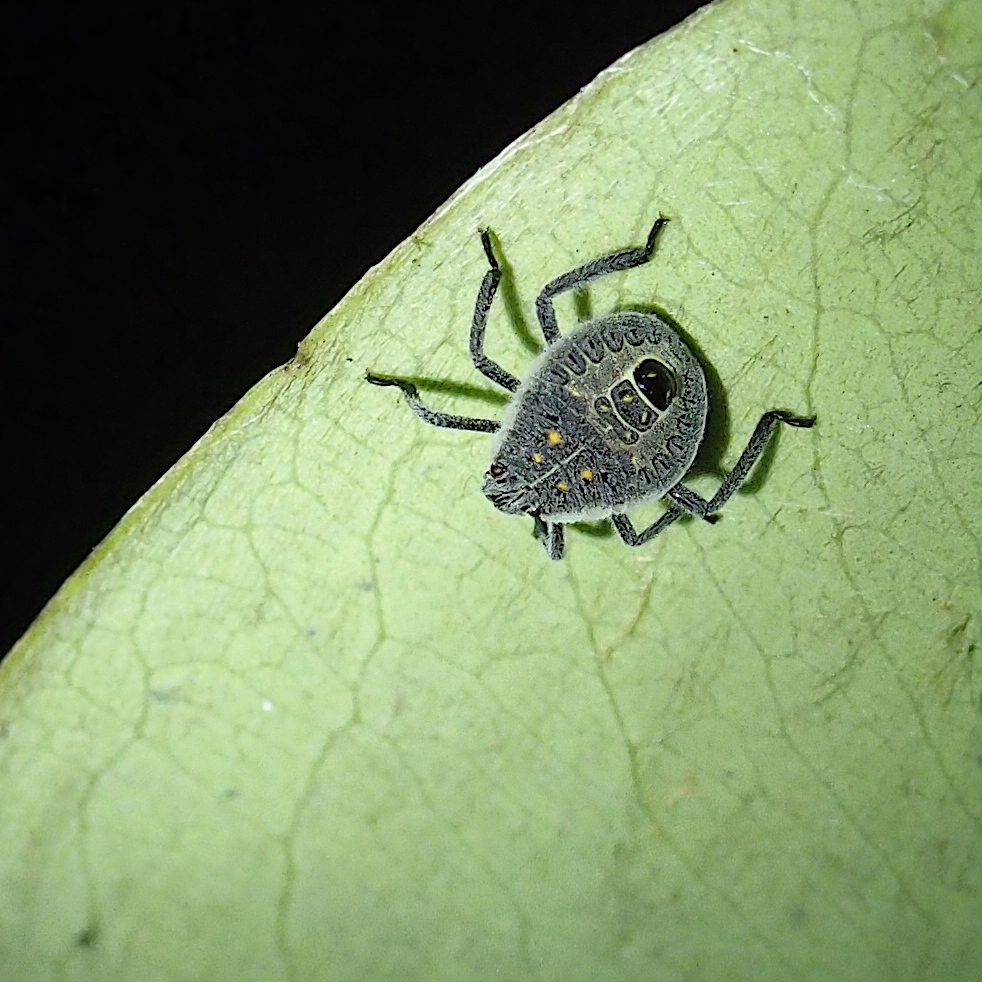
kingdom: Animalia
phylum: Arthropoda
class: Insecta
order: Hemiptera
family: Pentatomidae
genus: Erthesina
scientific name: Erthesina fullo
